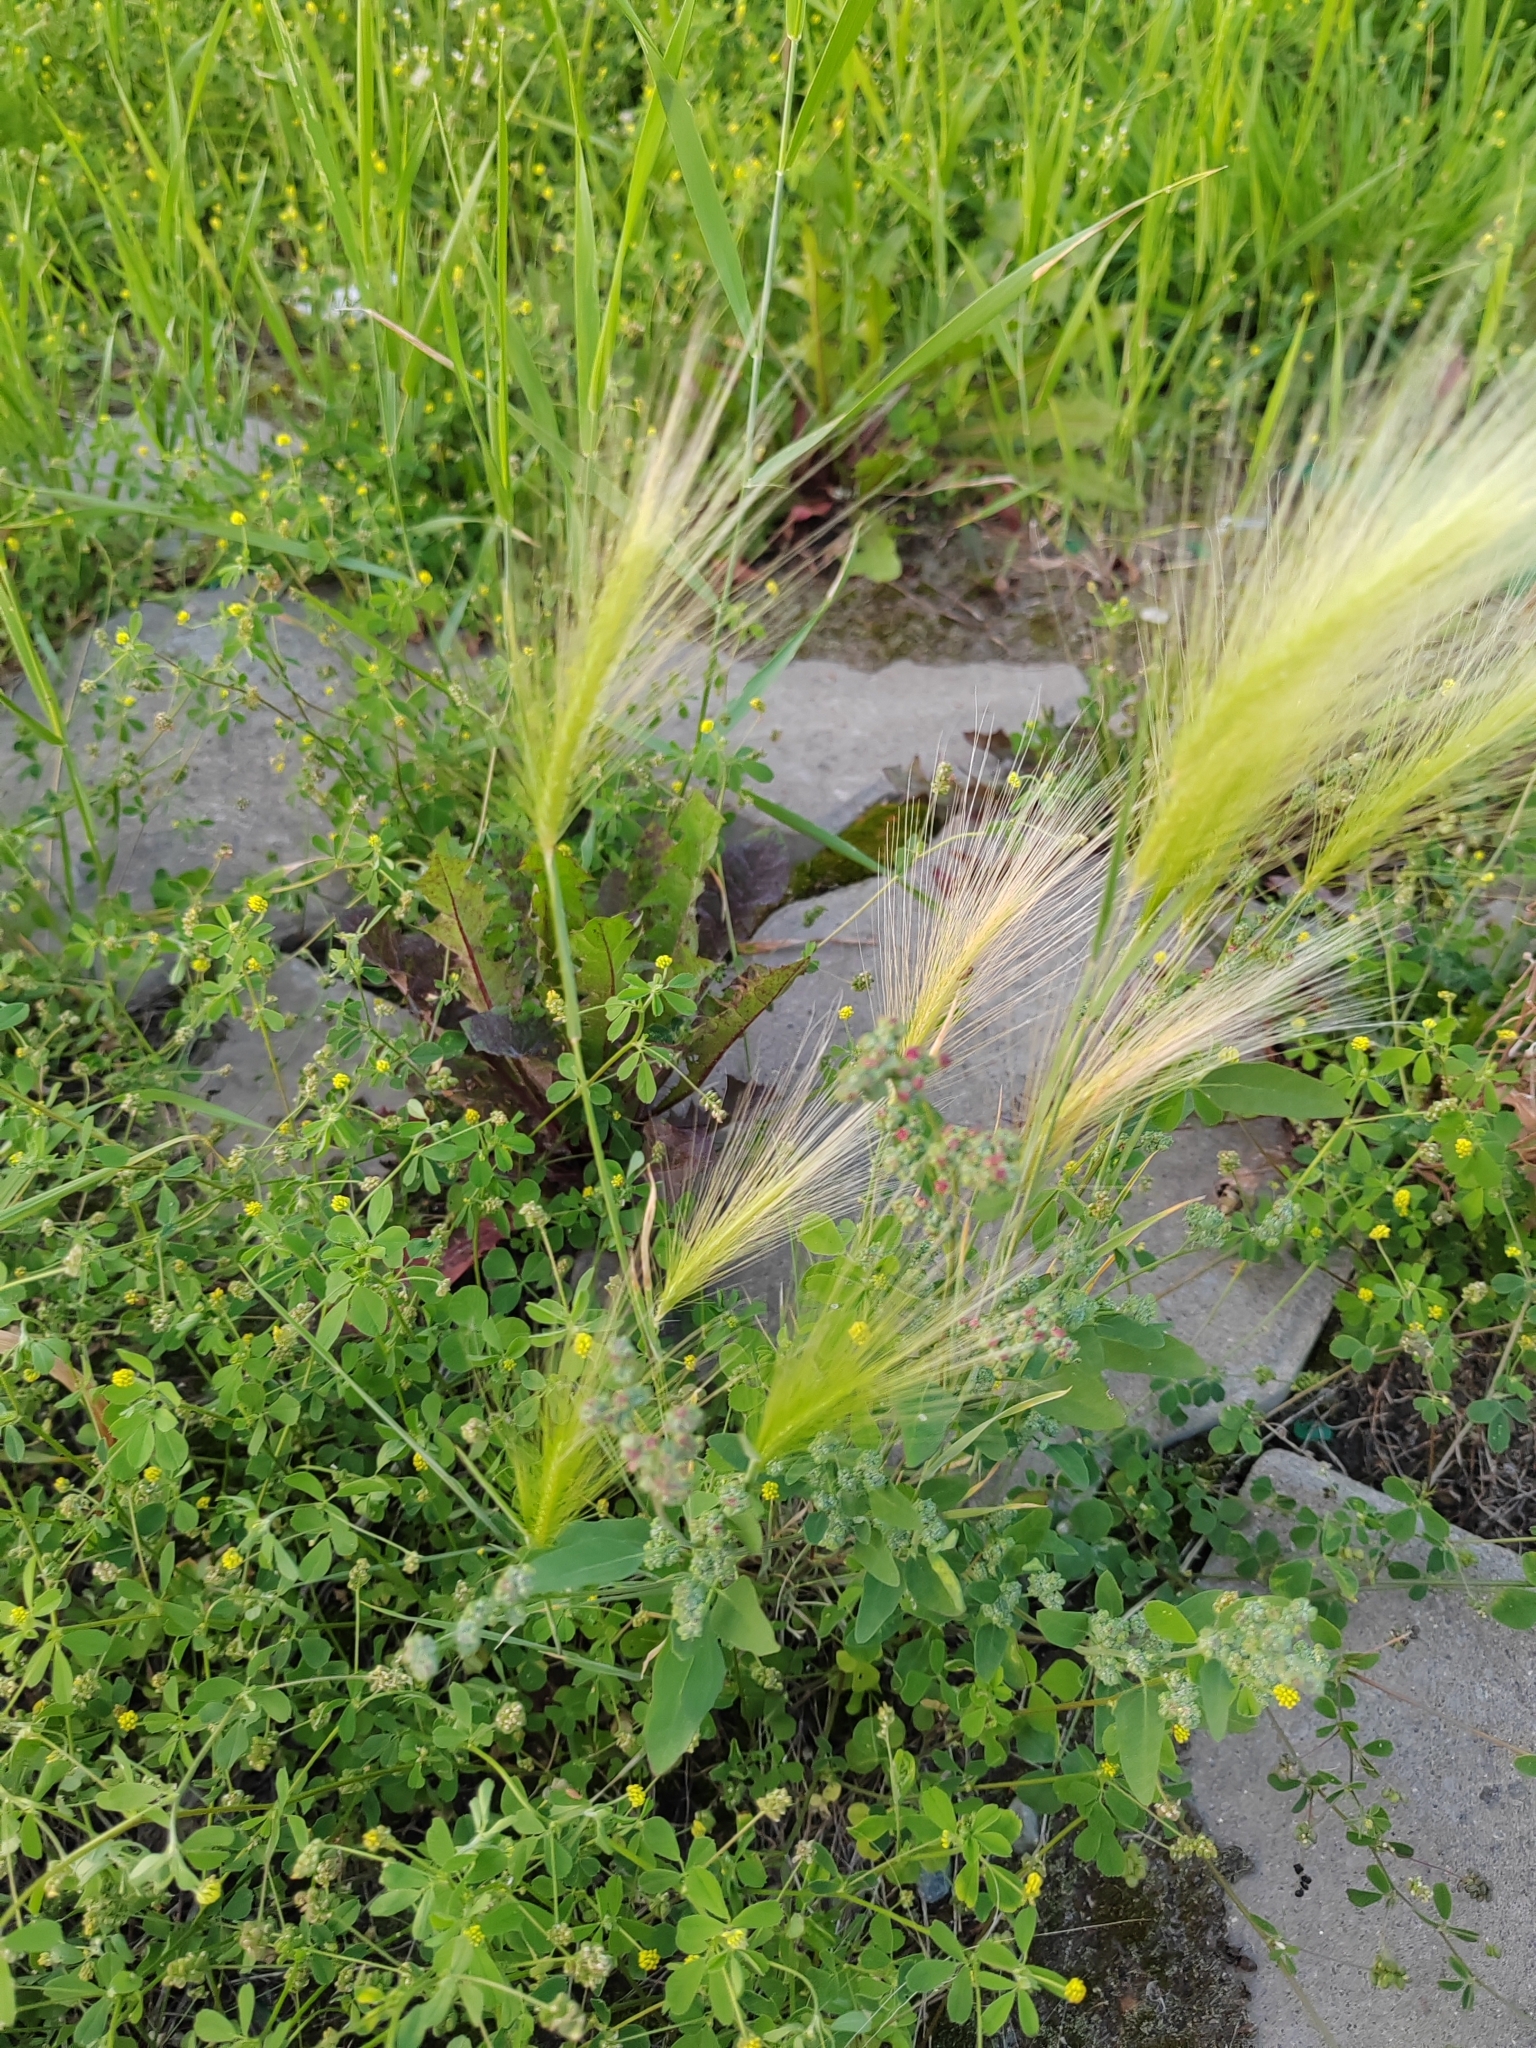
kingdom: Plantae
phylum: Tracheophyta
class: Liliopsida
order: Poales
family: Poaceae
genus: Hordeum
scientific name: Hordeum jubatum
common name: Foxtail barley
